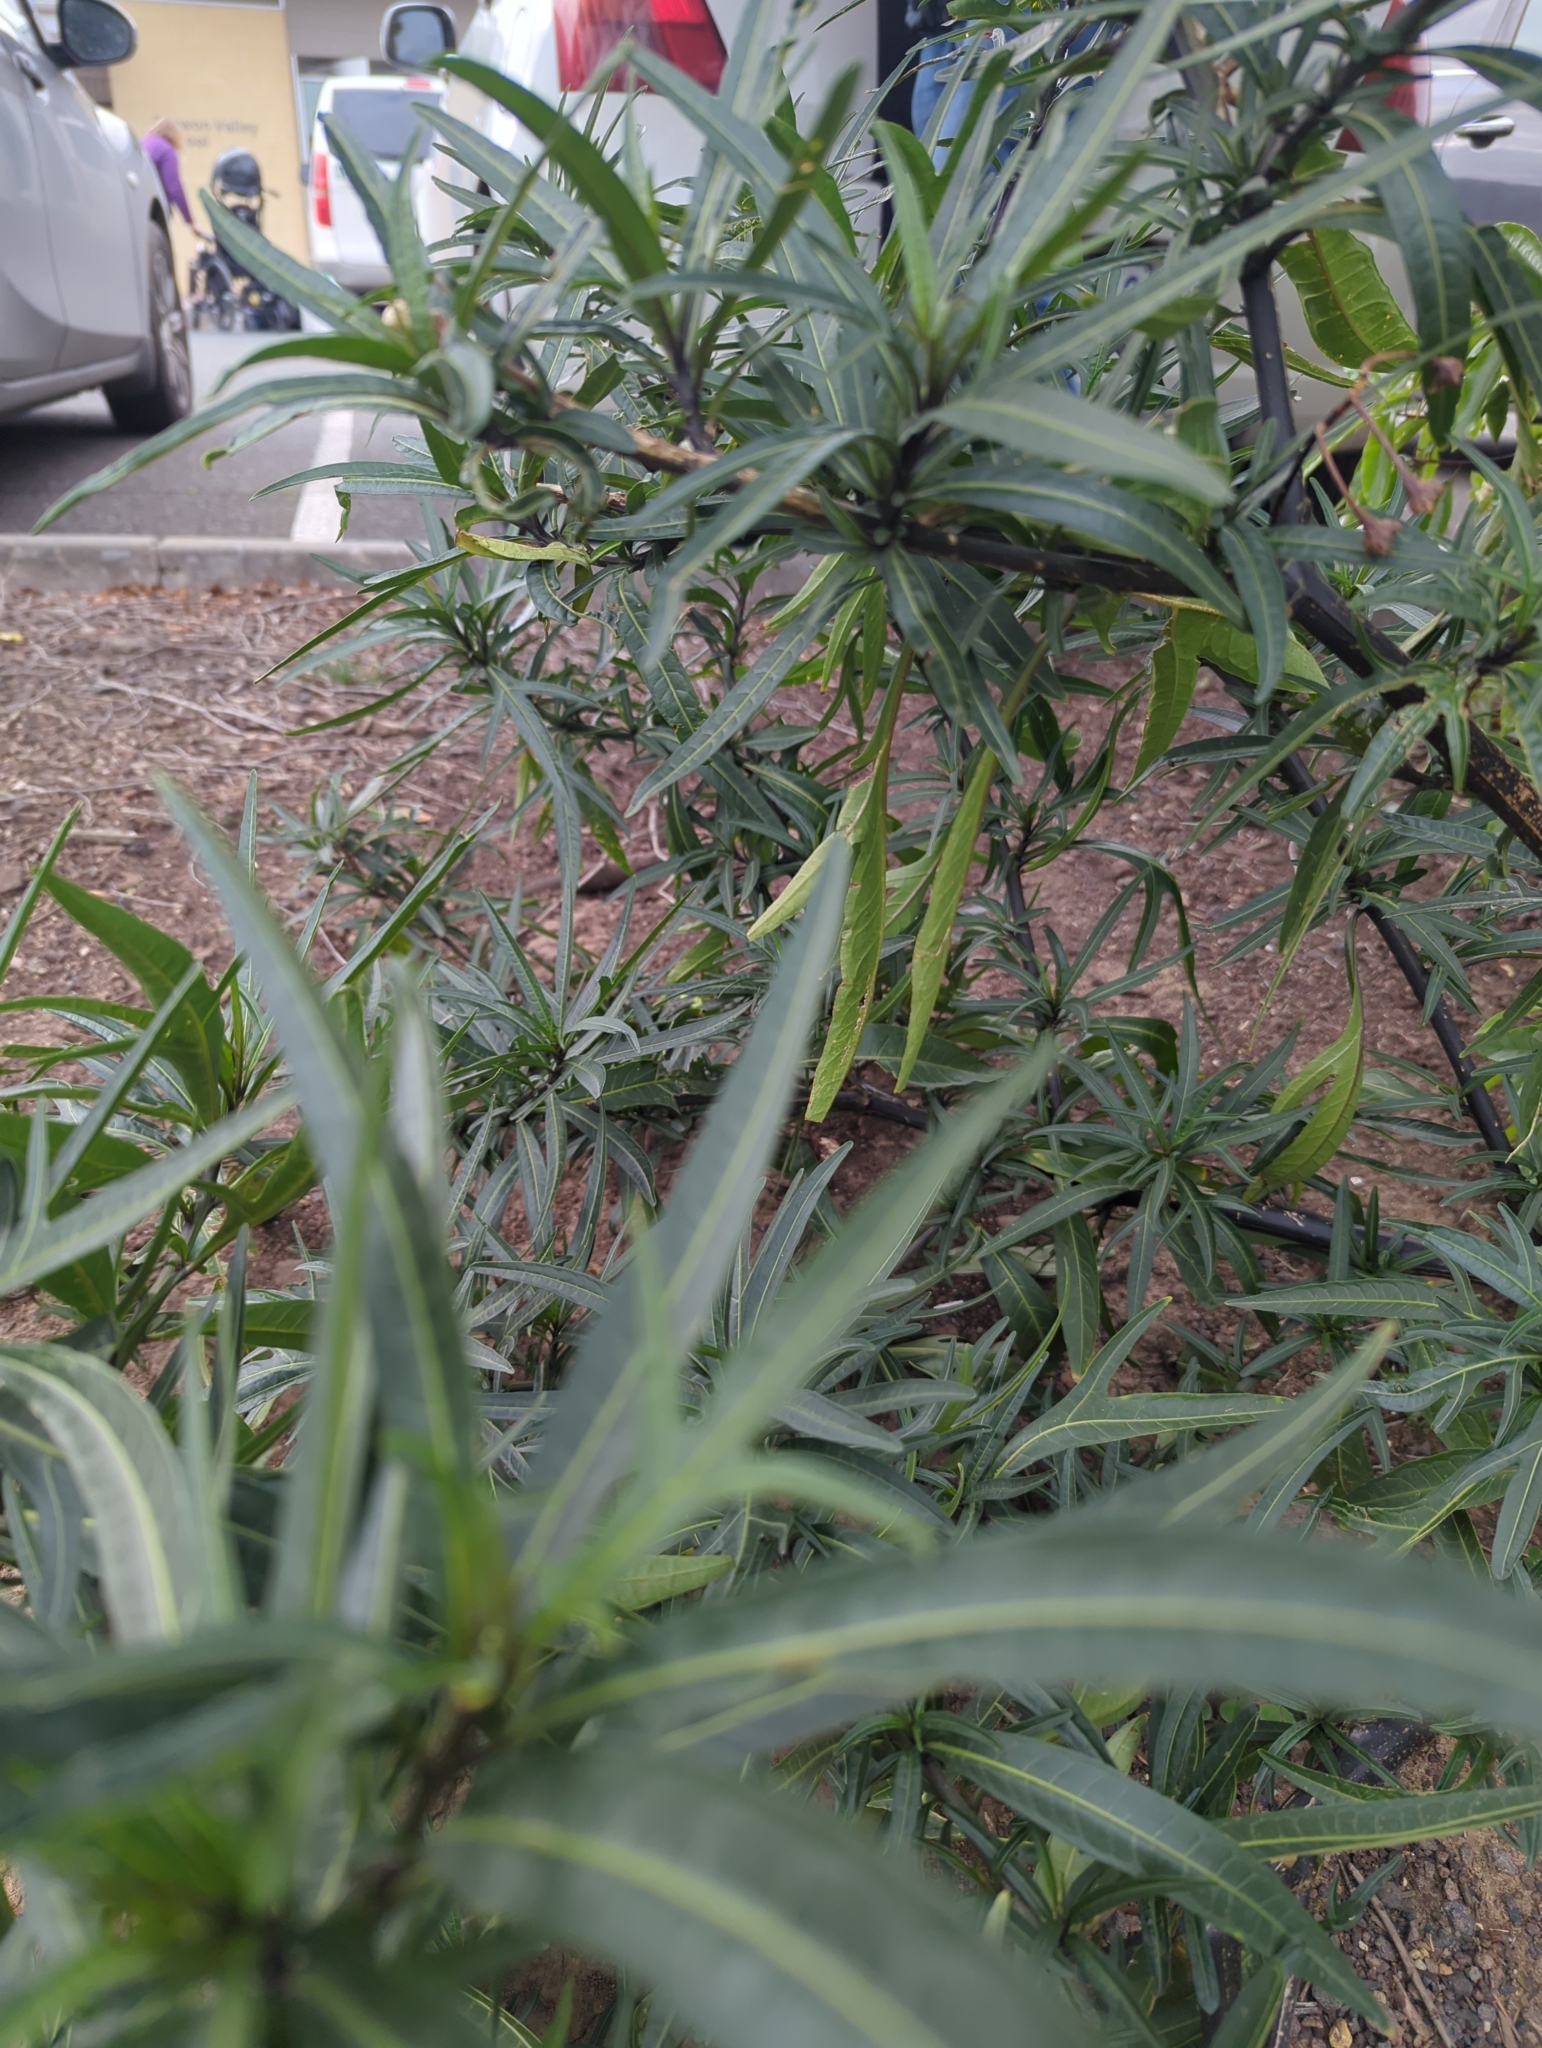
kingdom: Plantae
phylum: Tracheophyta
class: Magnoliopsida
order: Solanales
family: Solanaceae
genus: Solanum
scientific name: Solanum
